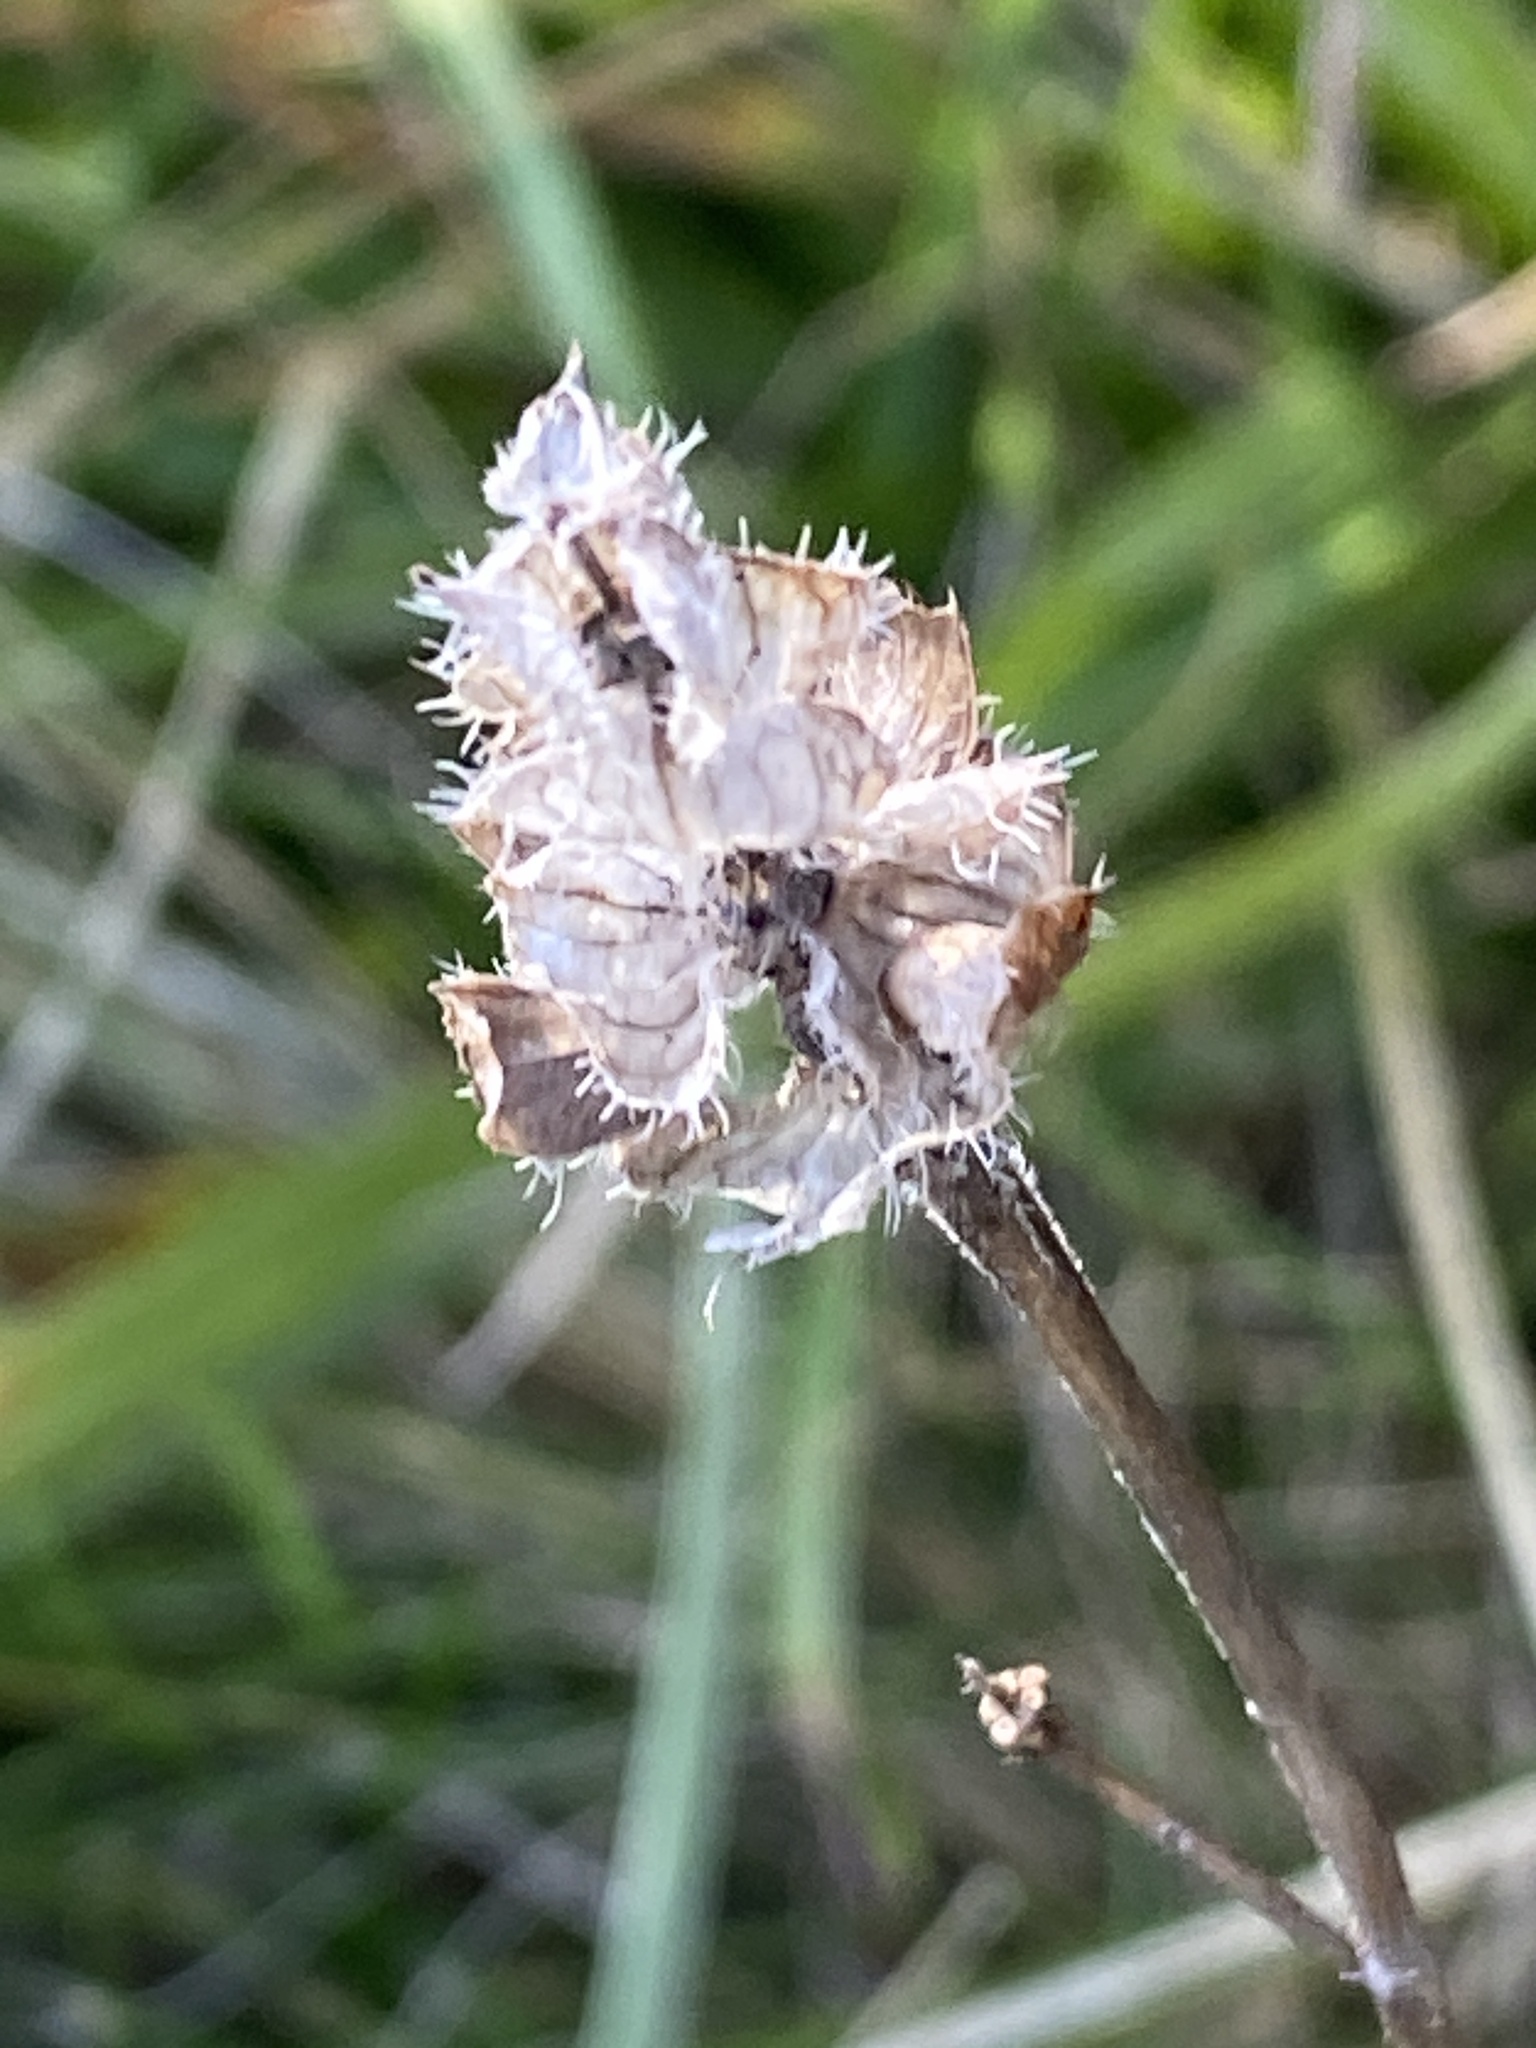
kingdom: Plantae
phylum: Tracheophyta
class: Magnoliopsida
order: Lamiales
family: Lamiaceae
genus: Prunella
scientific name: Prunella vulgaris
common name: Heal-all
